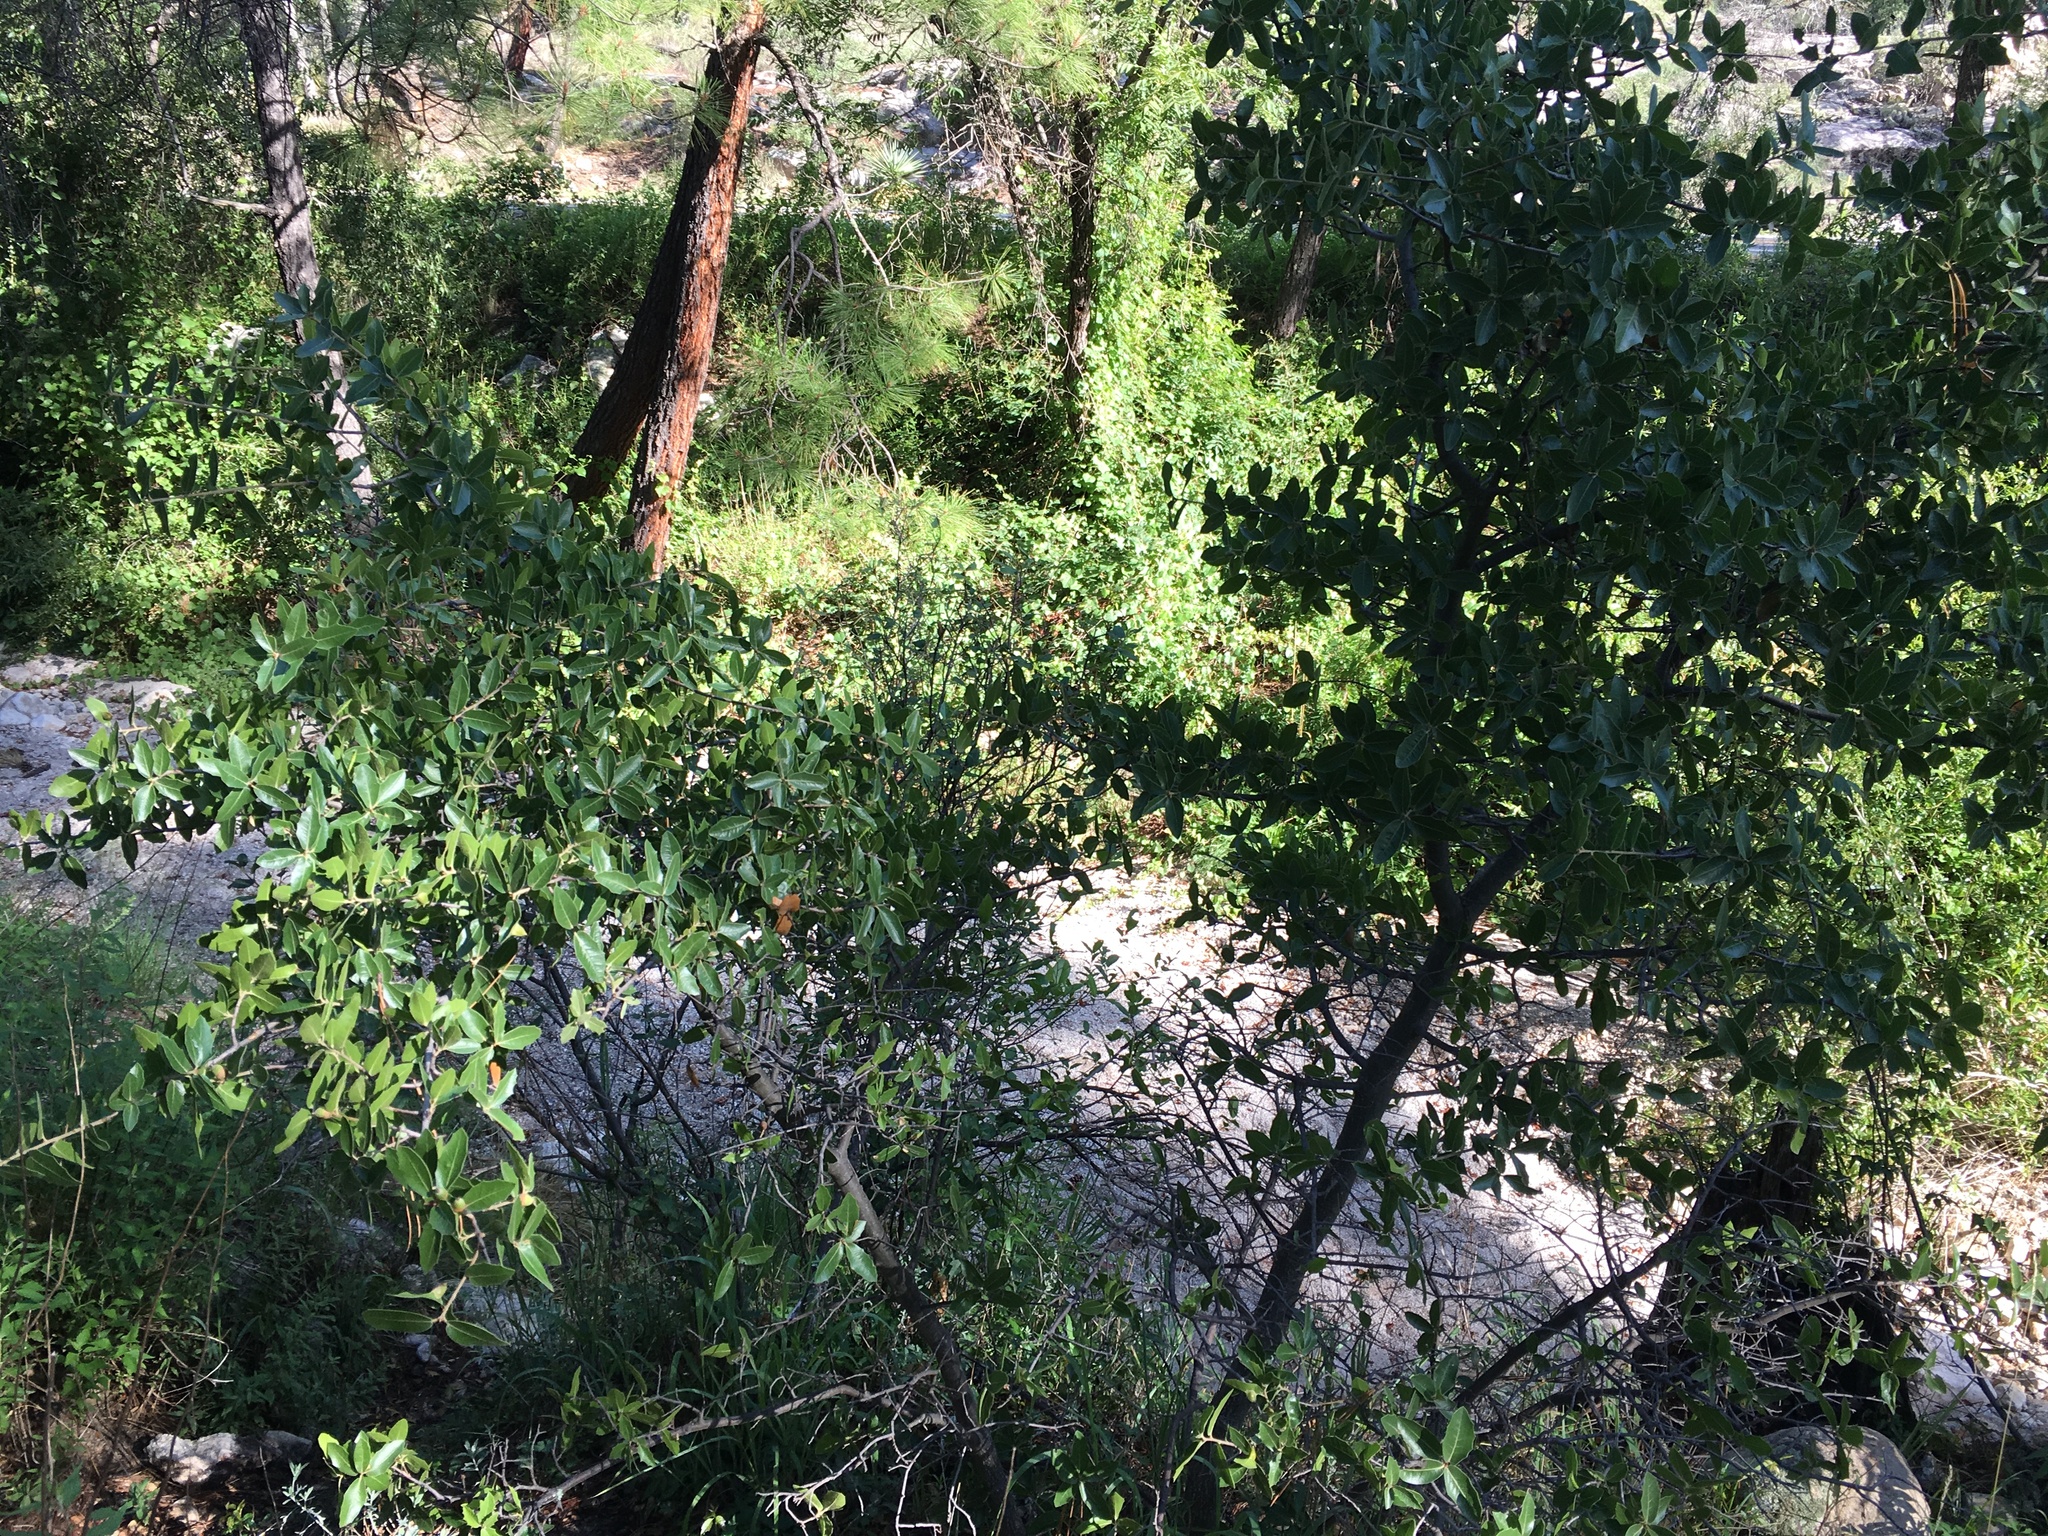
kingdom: Plantae
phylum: Tracheophyta
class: Magnoliopsida
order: Fagales
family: Fagaceae
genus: Quercus
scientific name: Quercus emoryi
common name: Emory oak
